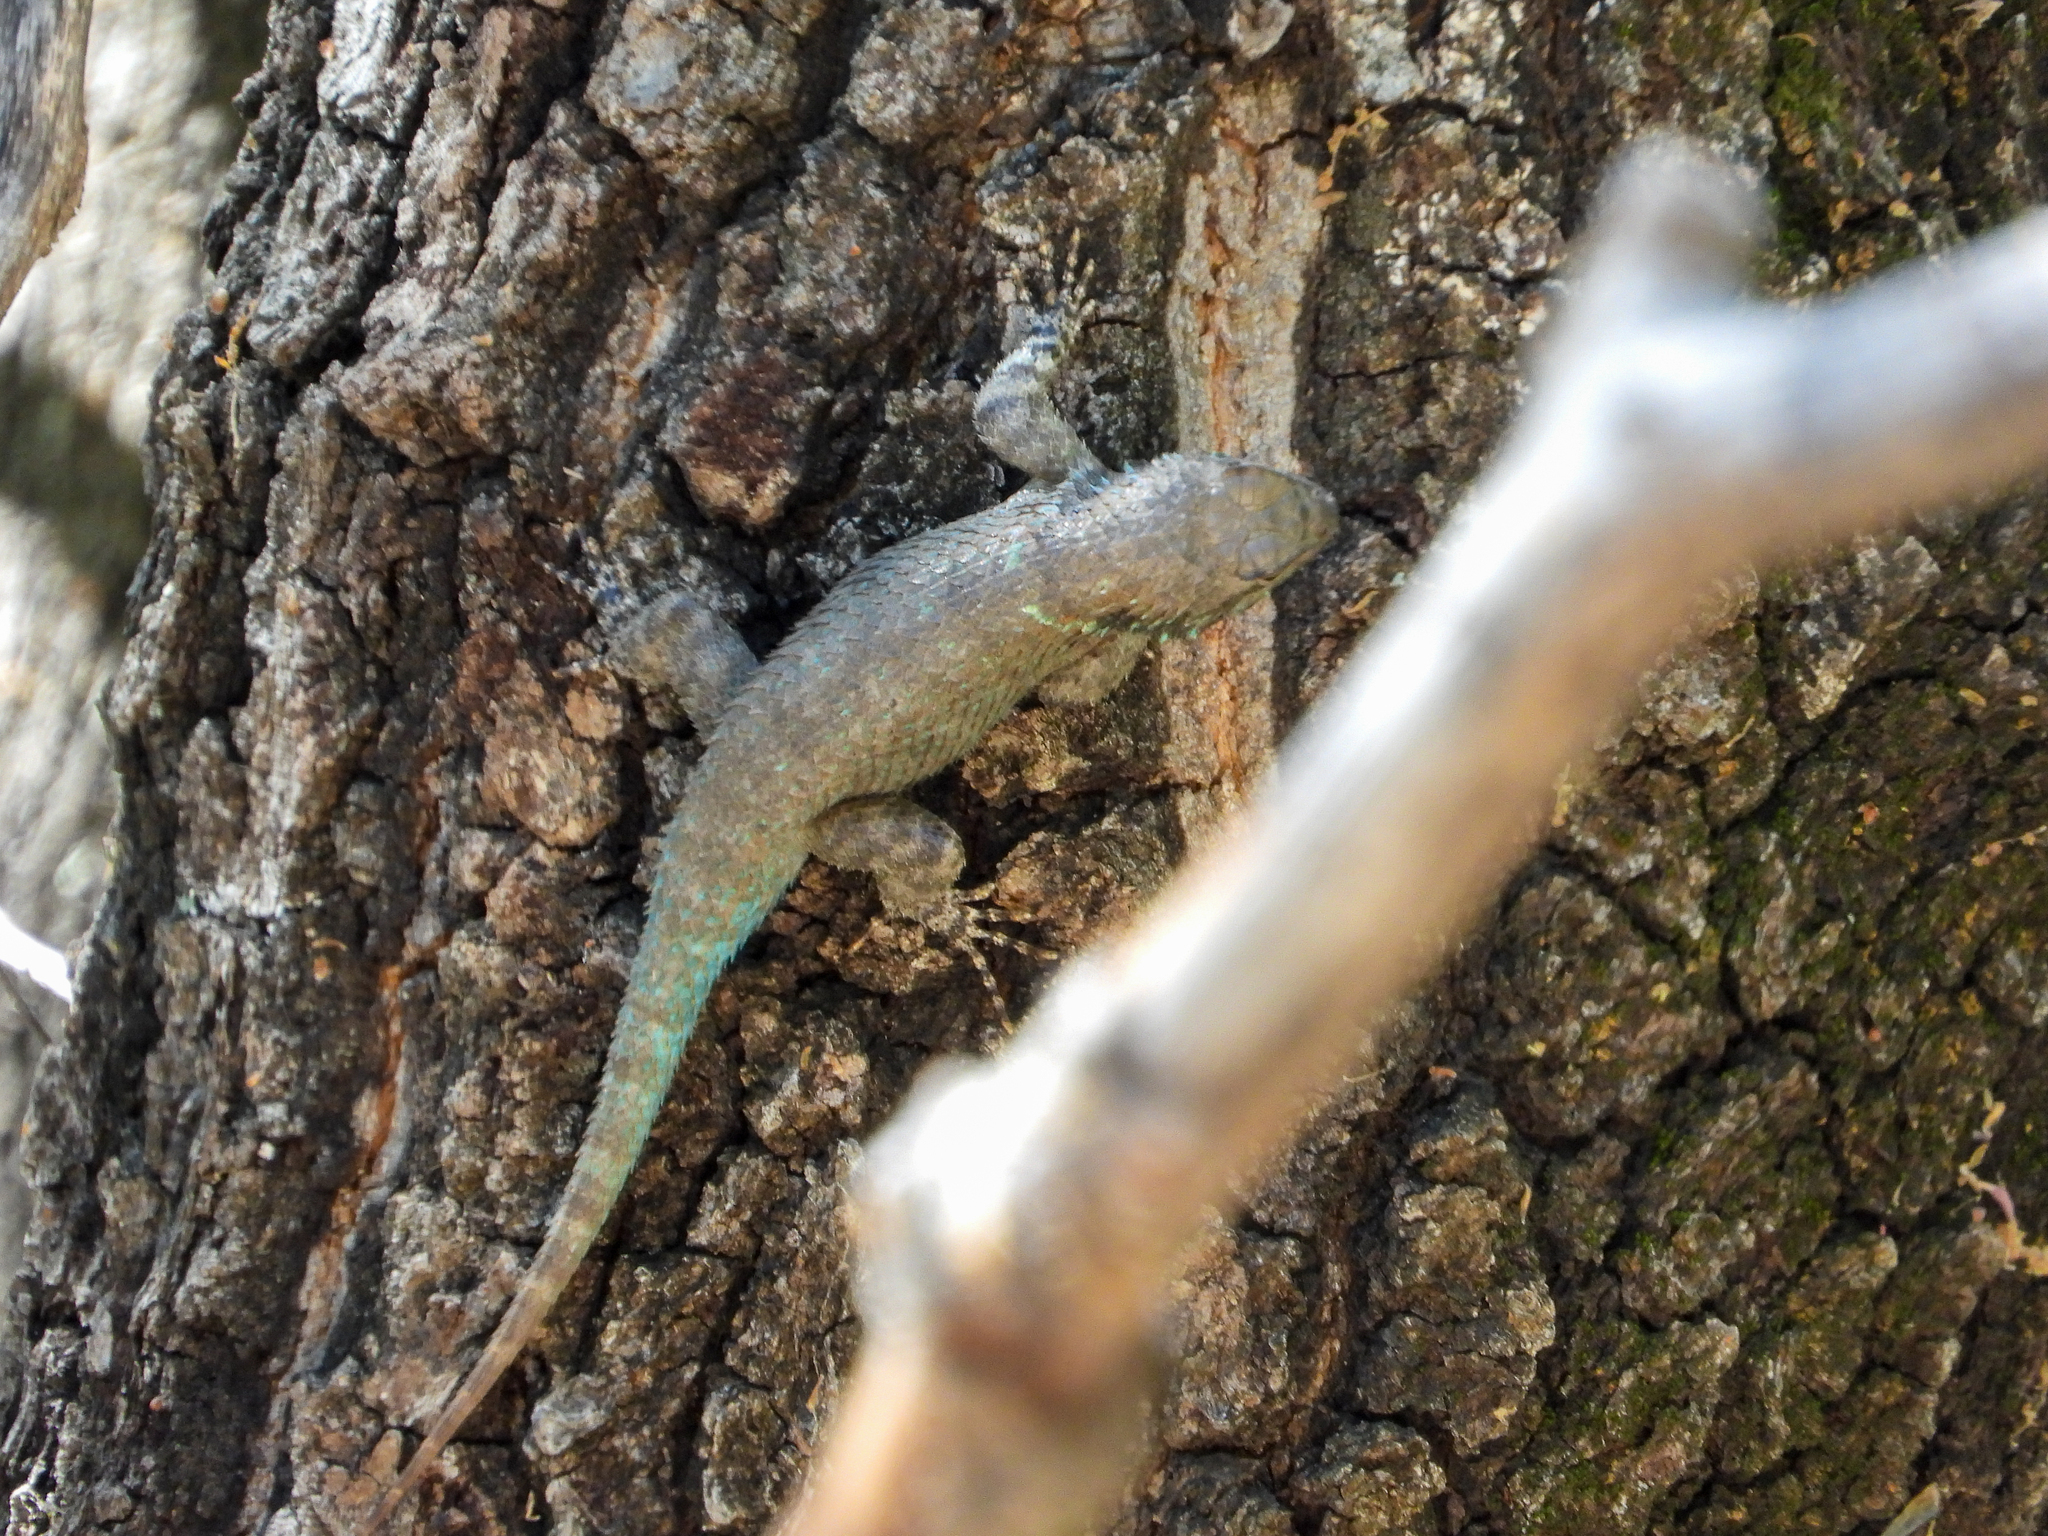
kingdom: Animalia
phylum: Chordata
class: Squamata
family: Phrynosomatidae
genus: Sceloporus
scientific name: Sceloporus clarkii
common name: Clark's spiny lizard
